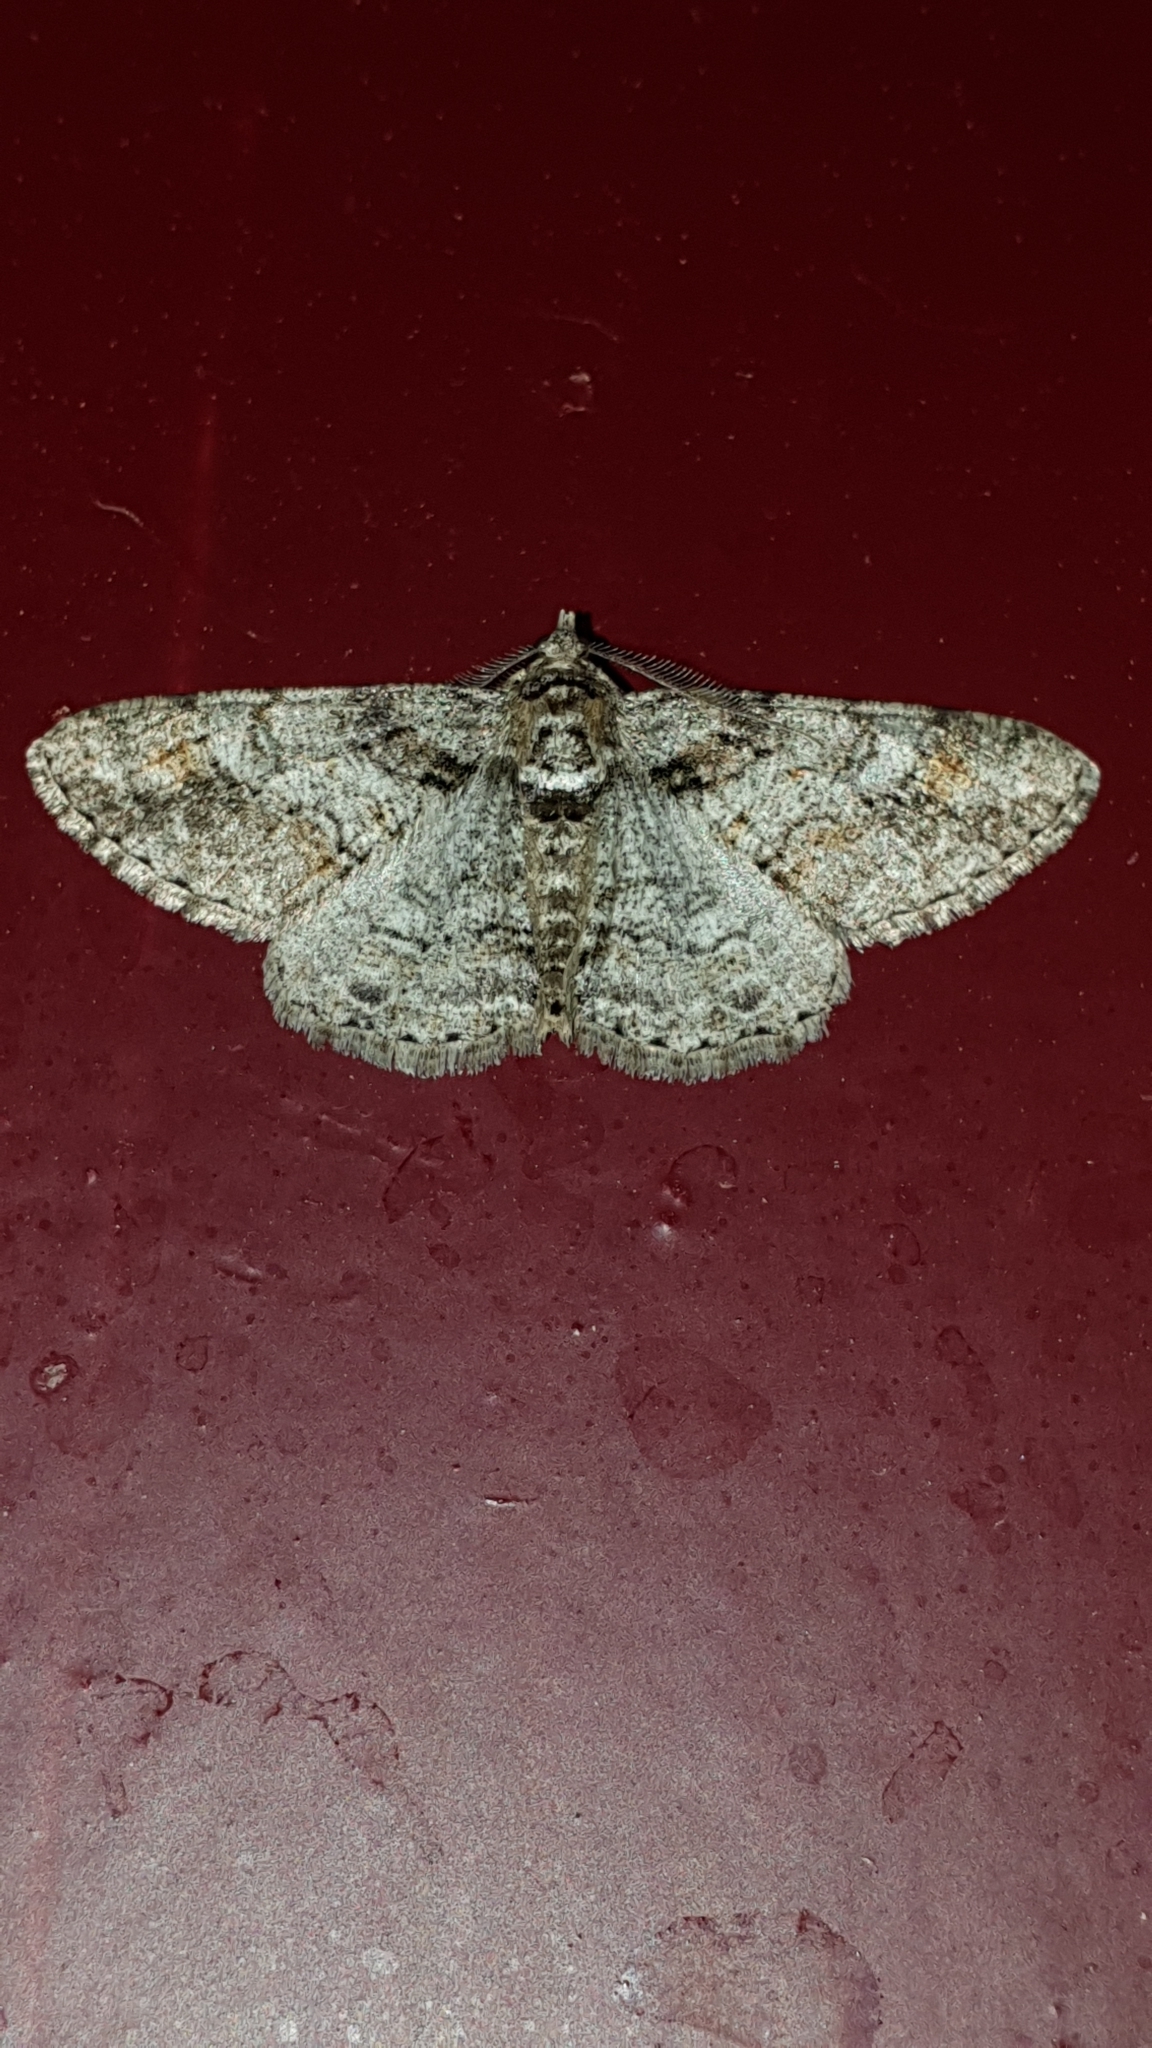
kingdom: Animalia
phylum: Arthropoda
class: Insecta
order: Lepidoptera
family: Geometridae
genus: Cleora
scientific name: Cleora cinctaria
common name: Ringed carpet
